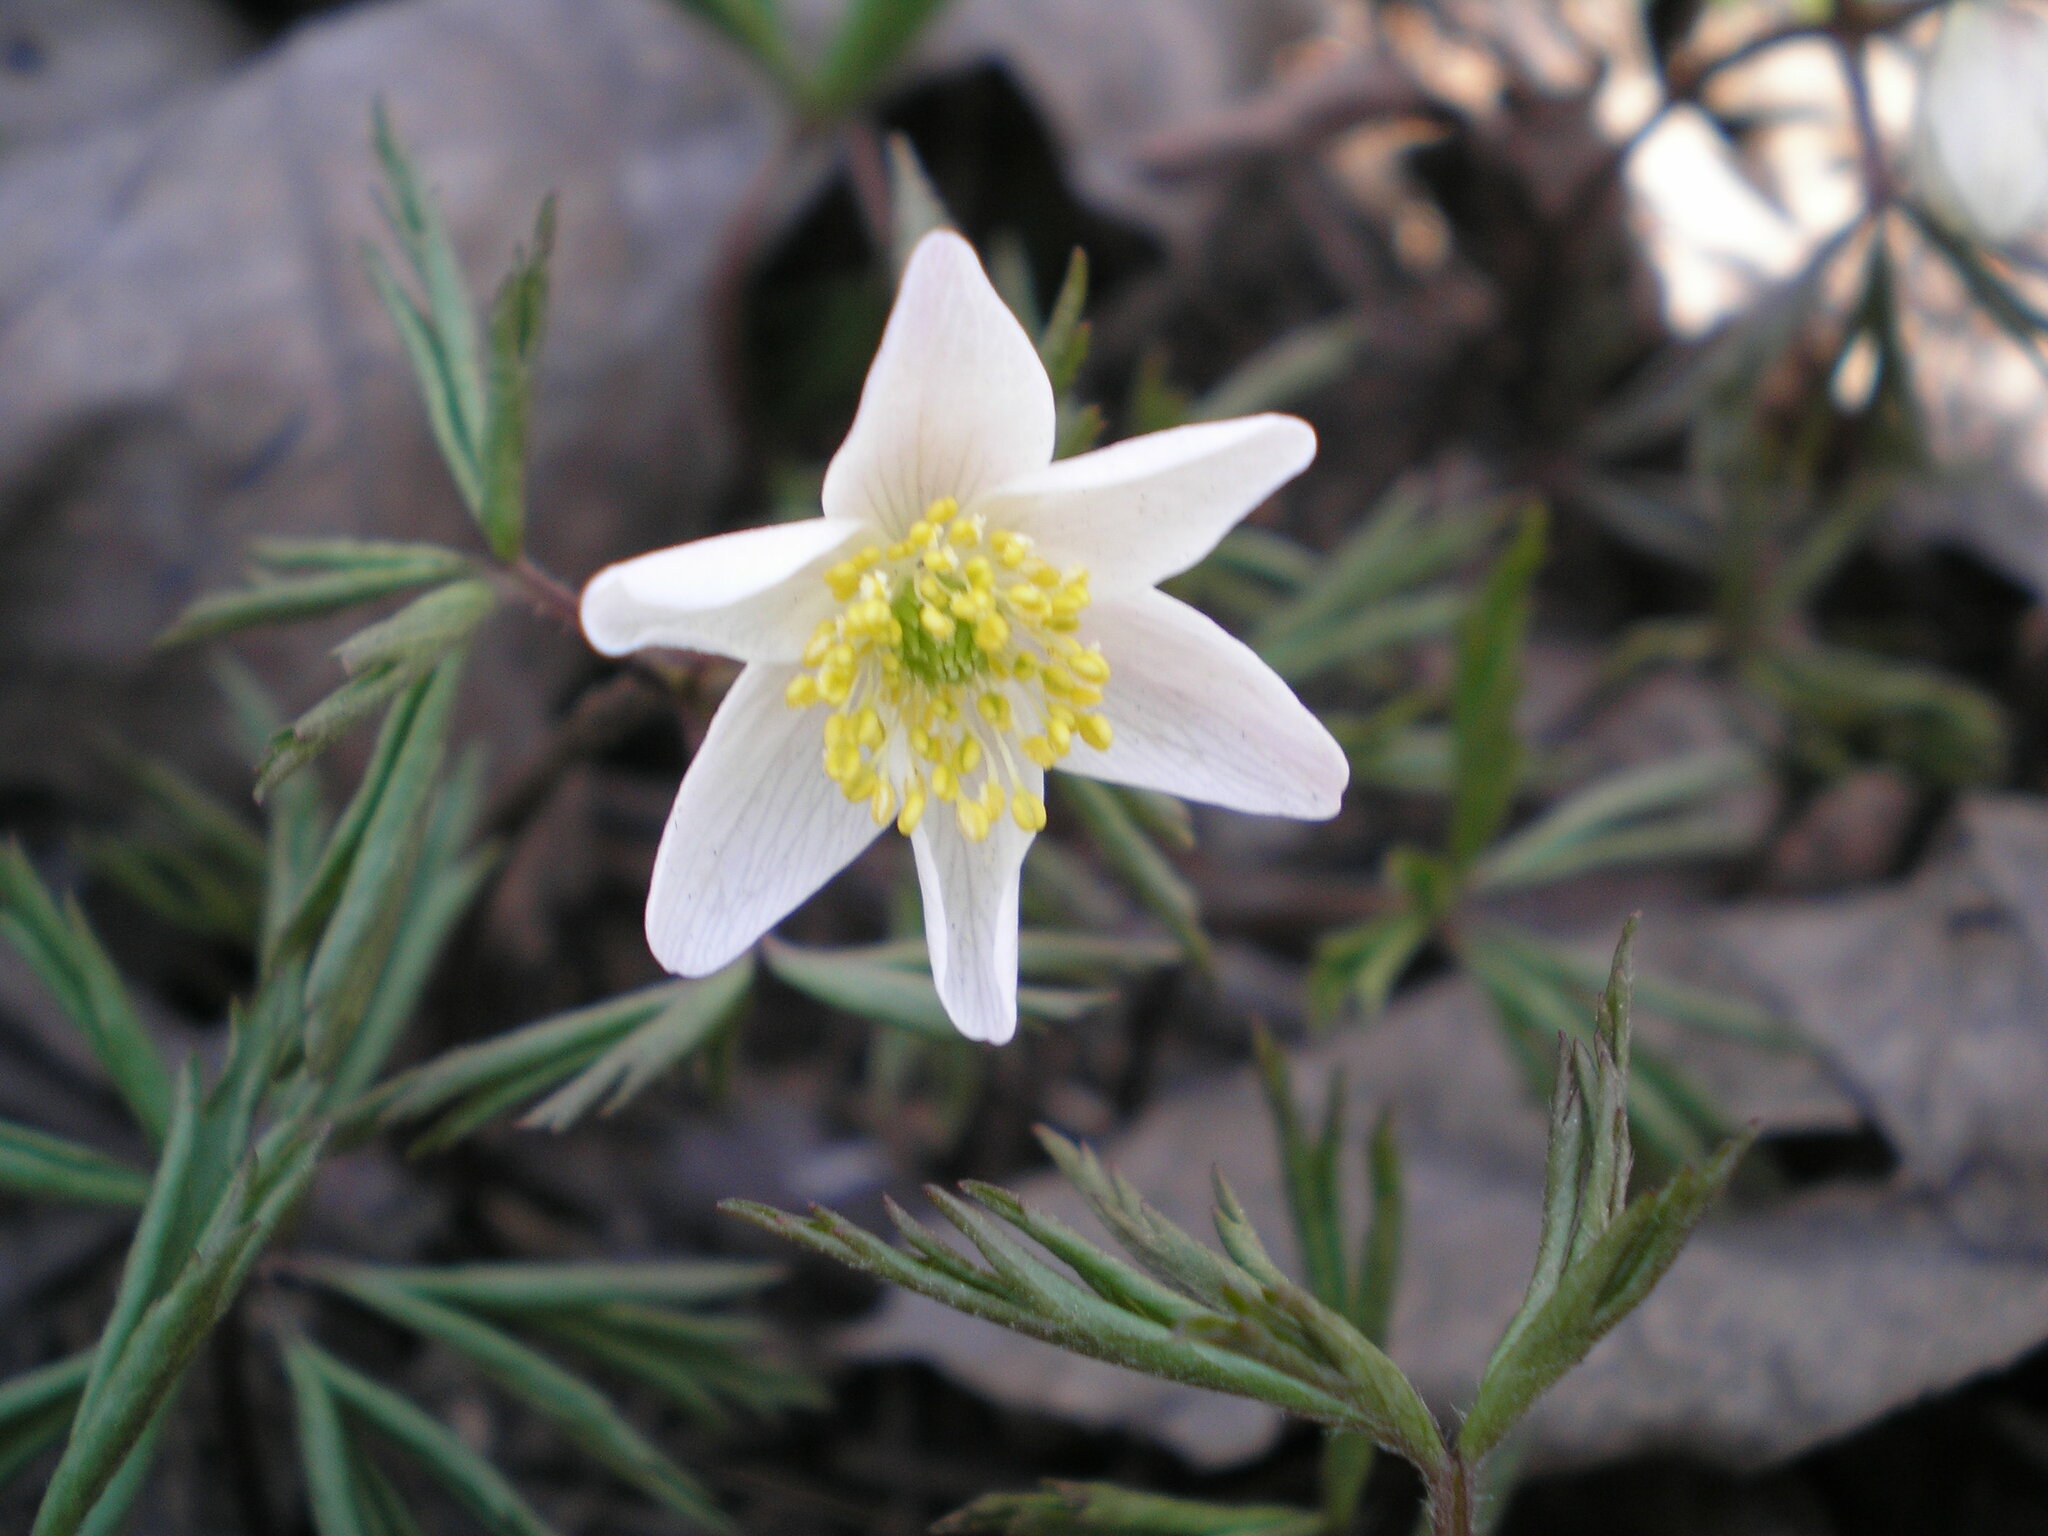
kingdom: Plantae
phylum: Tracheophyta
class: Magnoliopsida
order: Ranunculales
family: Ranunculaceae
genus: Anemone
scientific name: Anemone nemorosa
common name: Wood anemone
